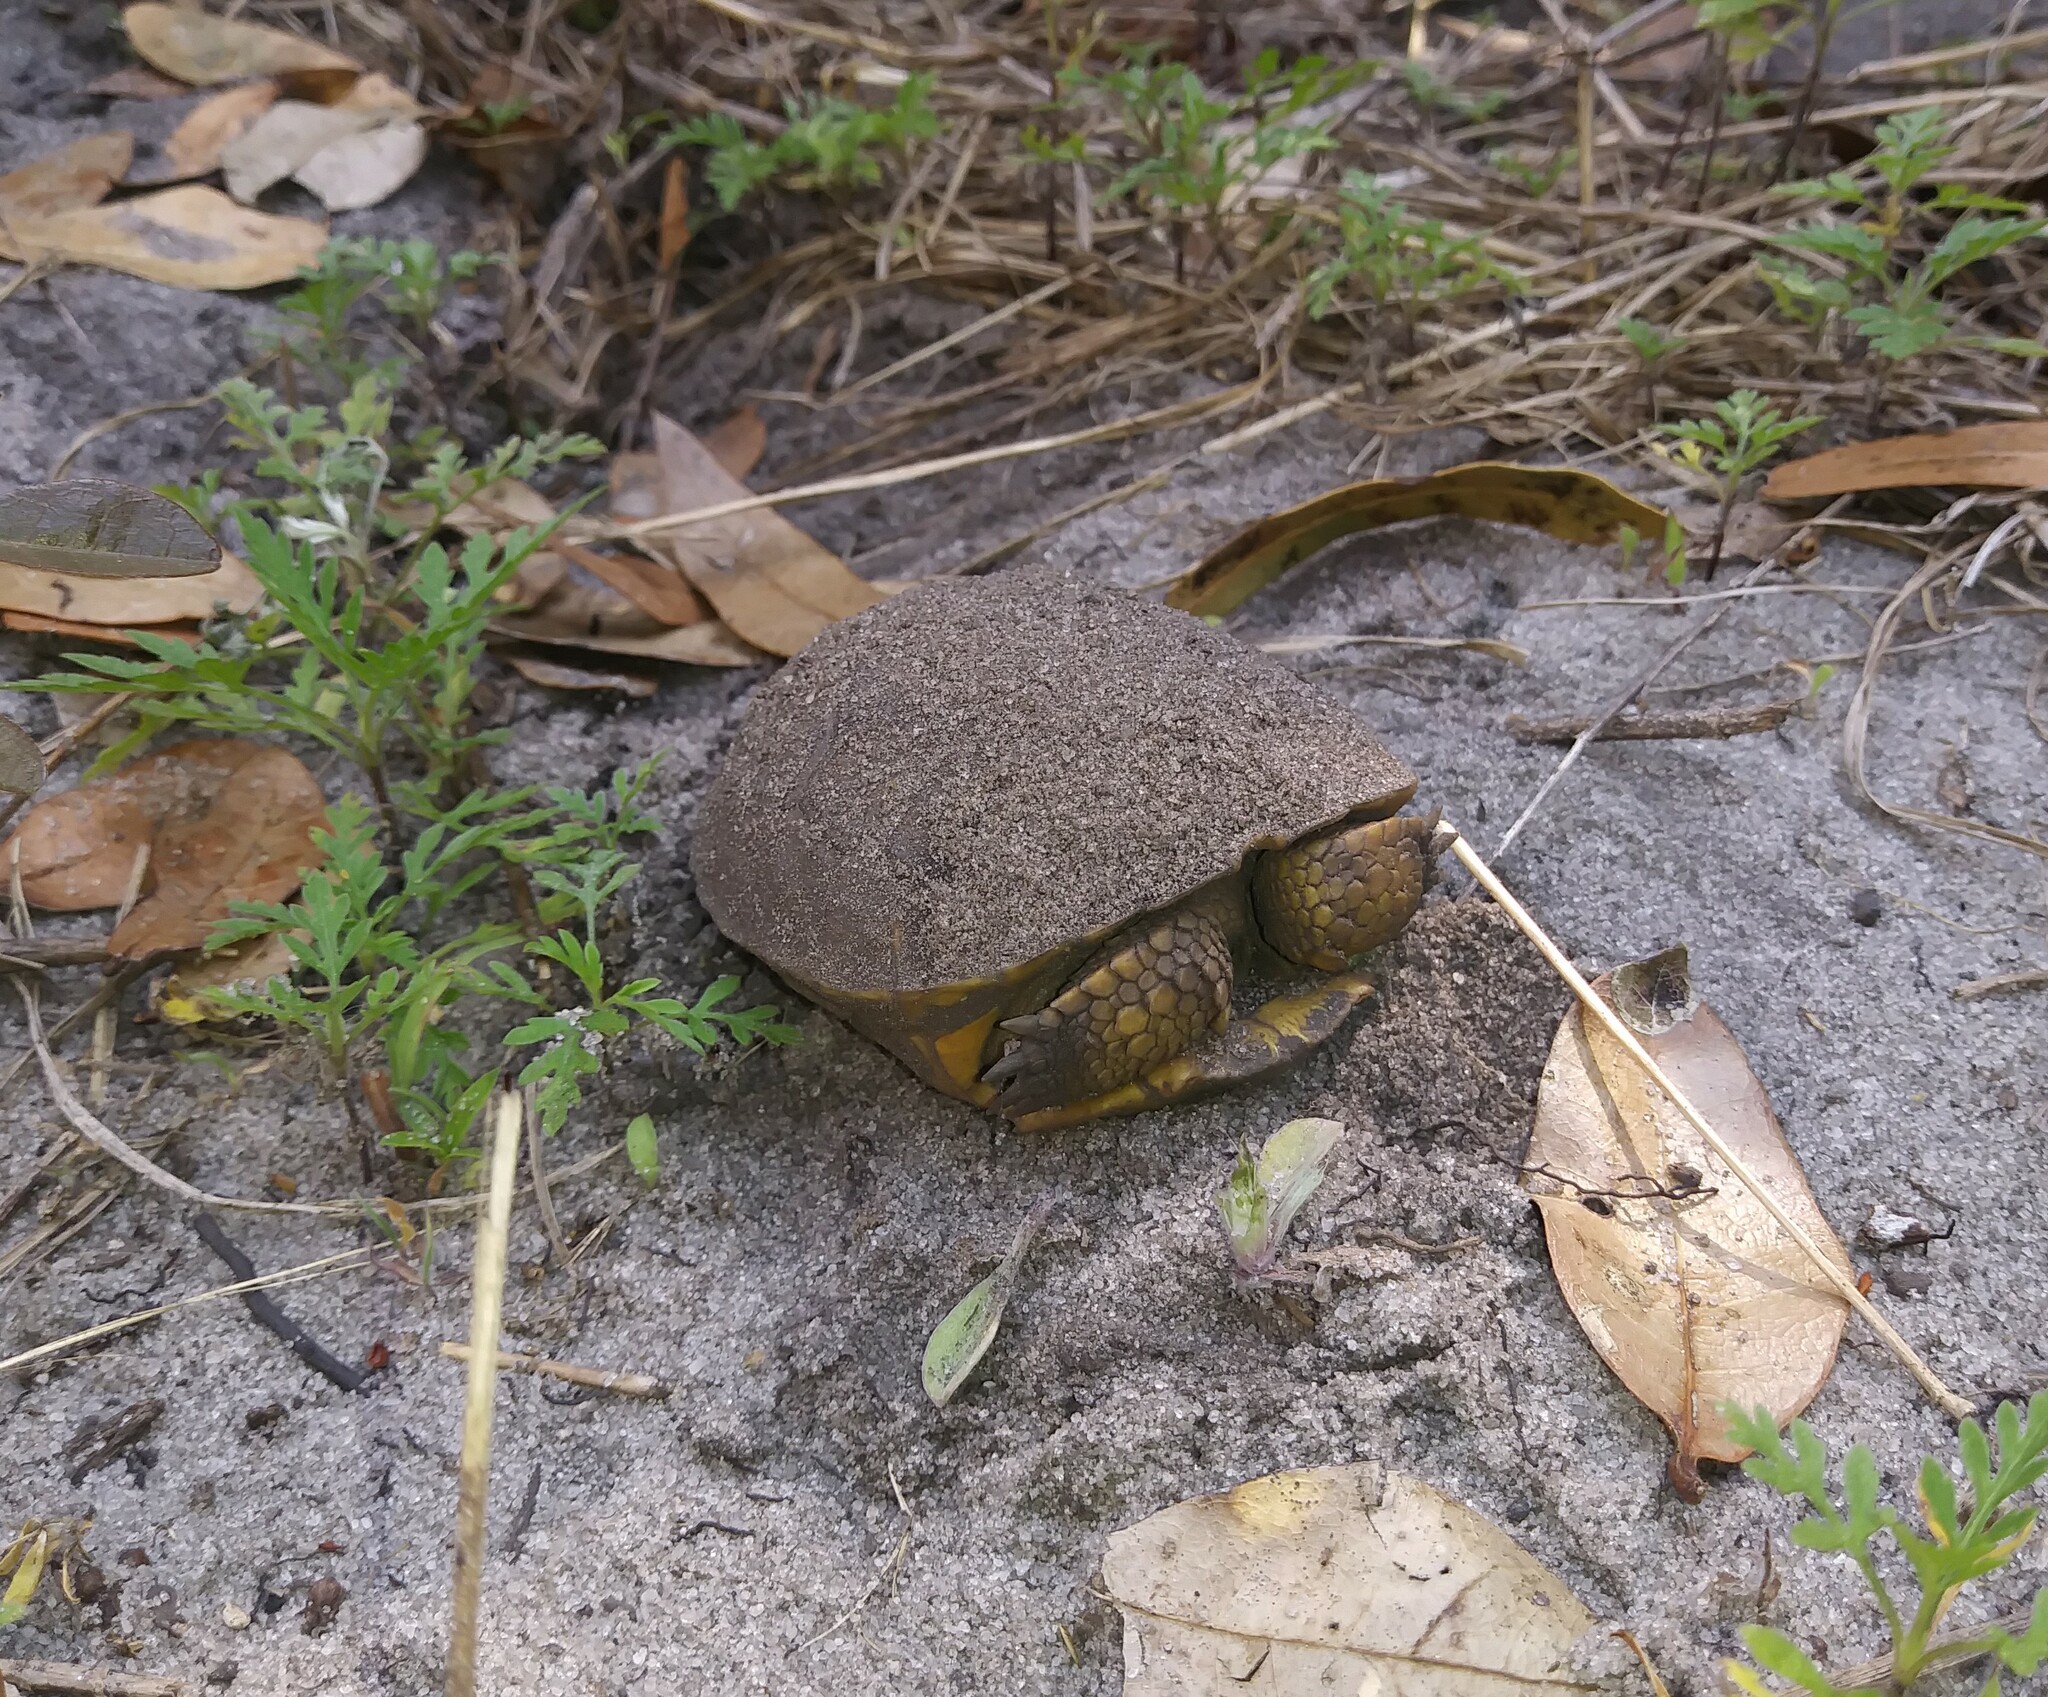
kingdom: Animalia
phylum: Chordata
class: Testudines
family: Testudinidae
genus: Gopherus
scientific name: Gopherus polyphemus
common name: Florida gopher tortoise
